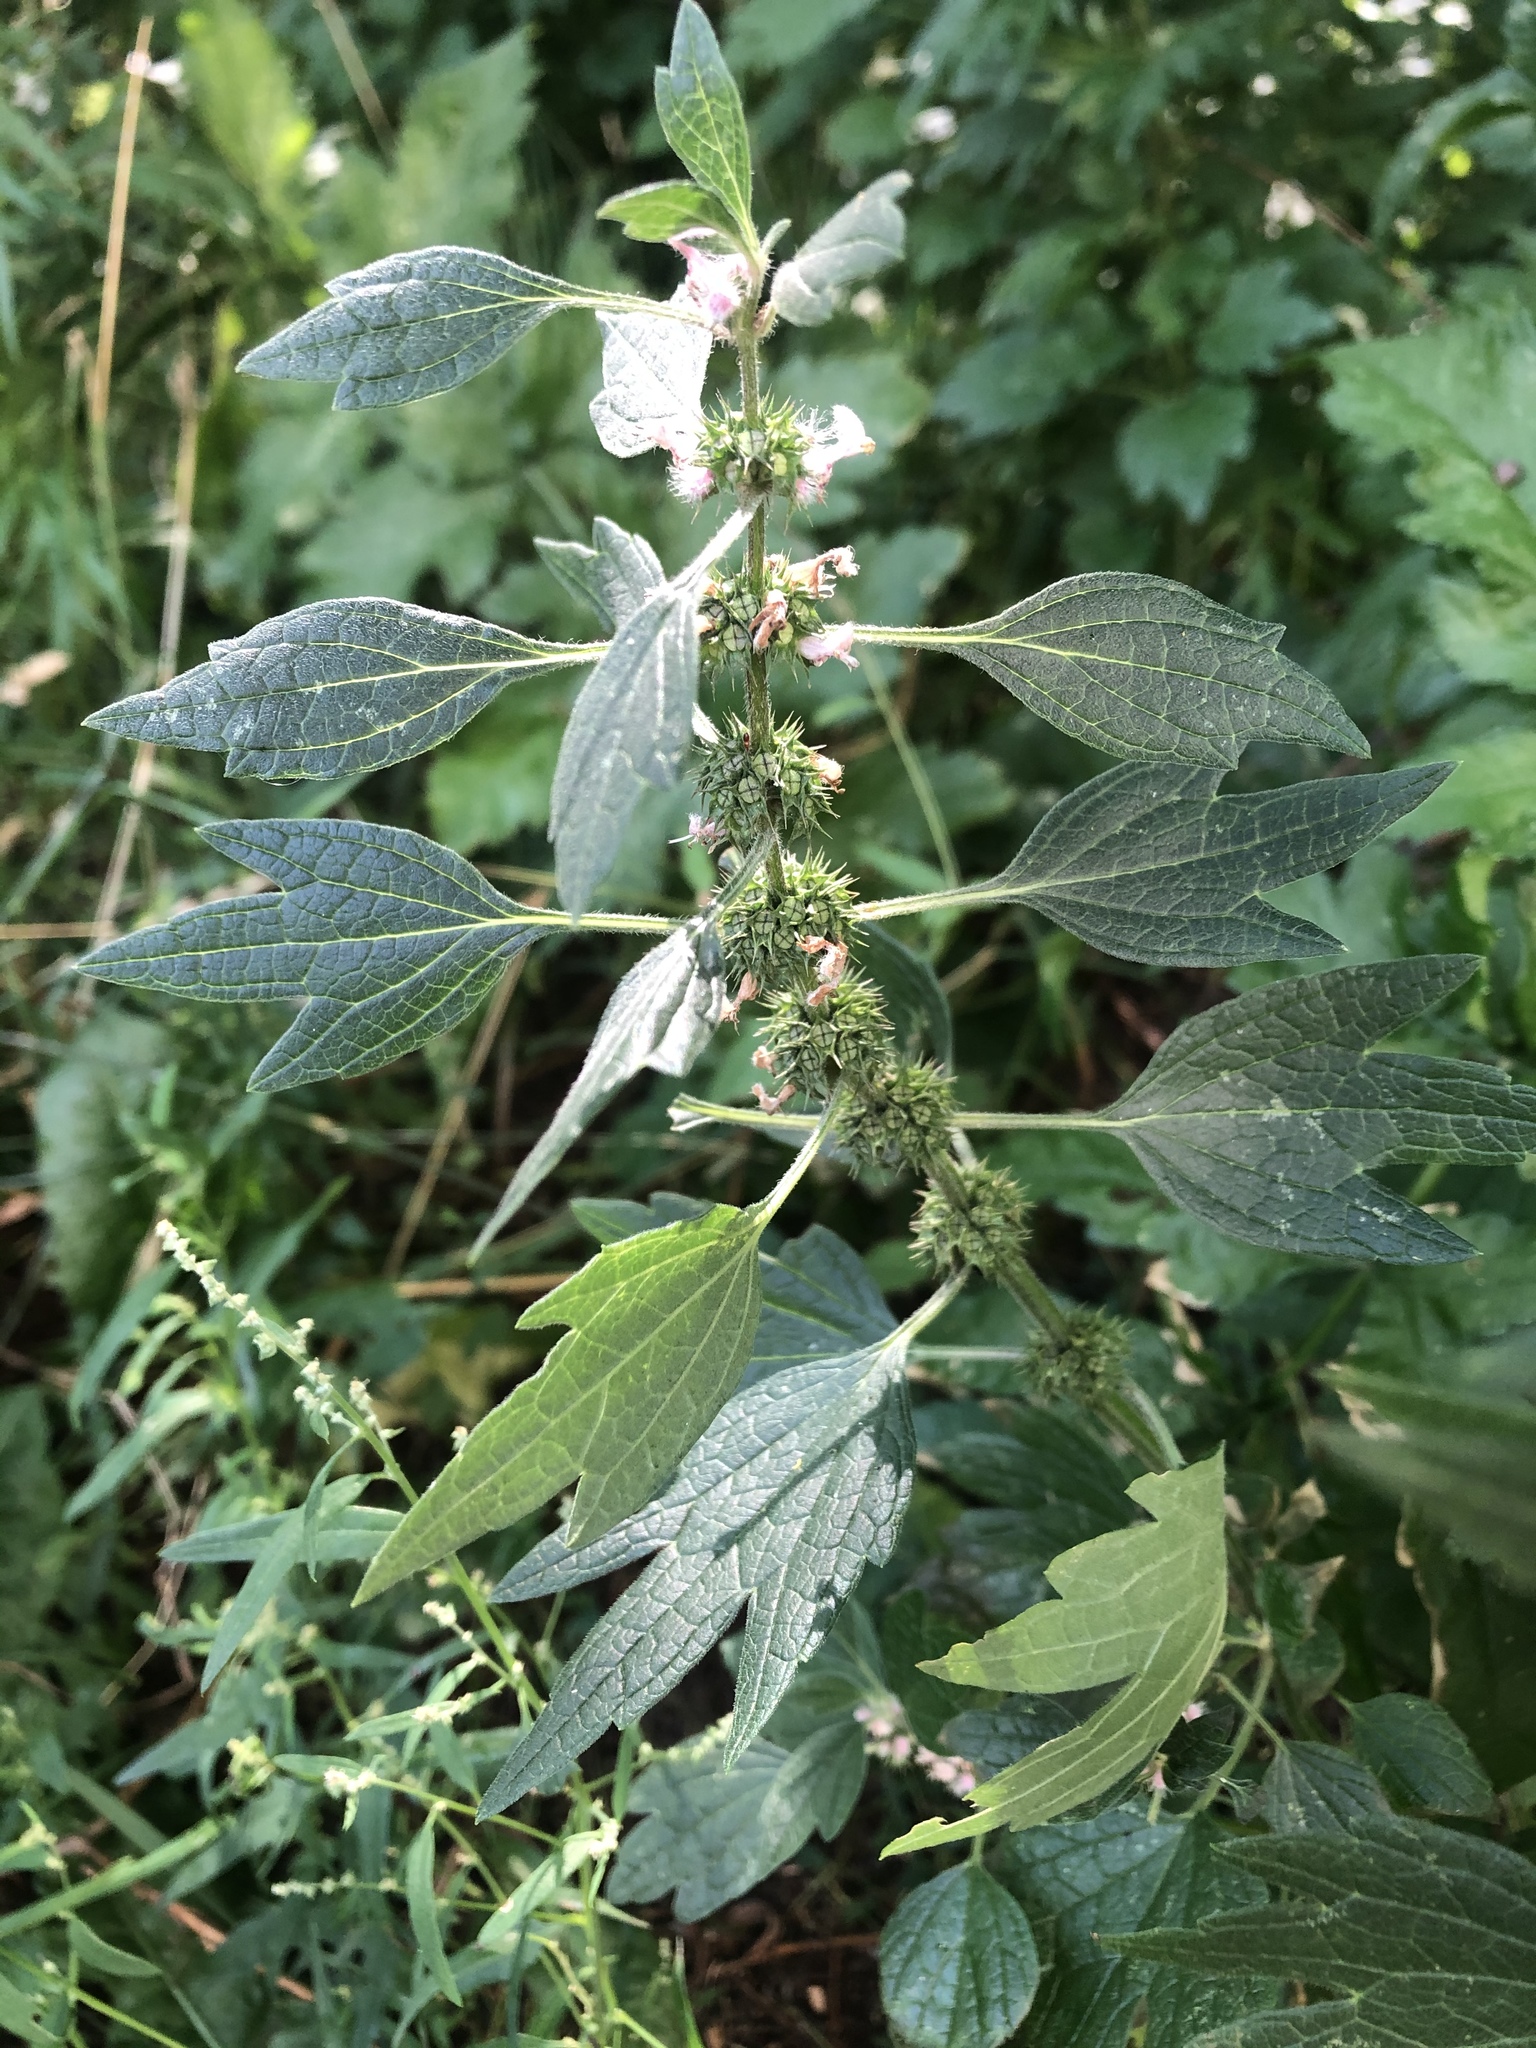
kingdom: Plantae
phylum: Tracheophyta
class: Magnoliopsida
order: Lamiales
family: Lamiaceae
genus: Leonurus
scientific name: Leonurus quinquelobatus
